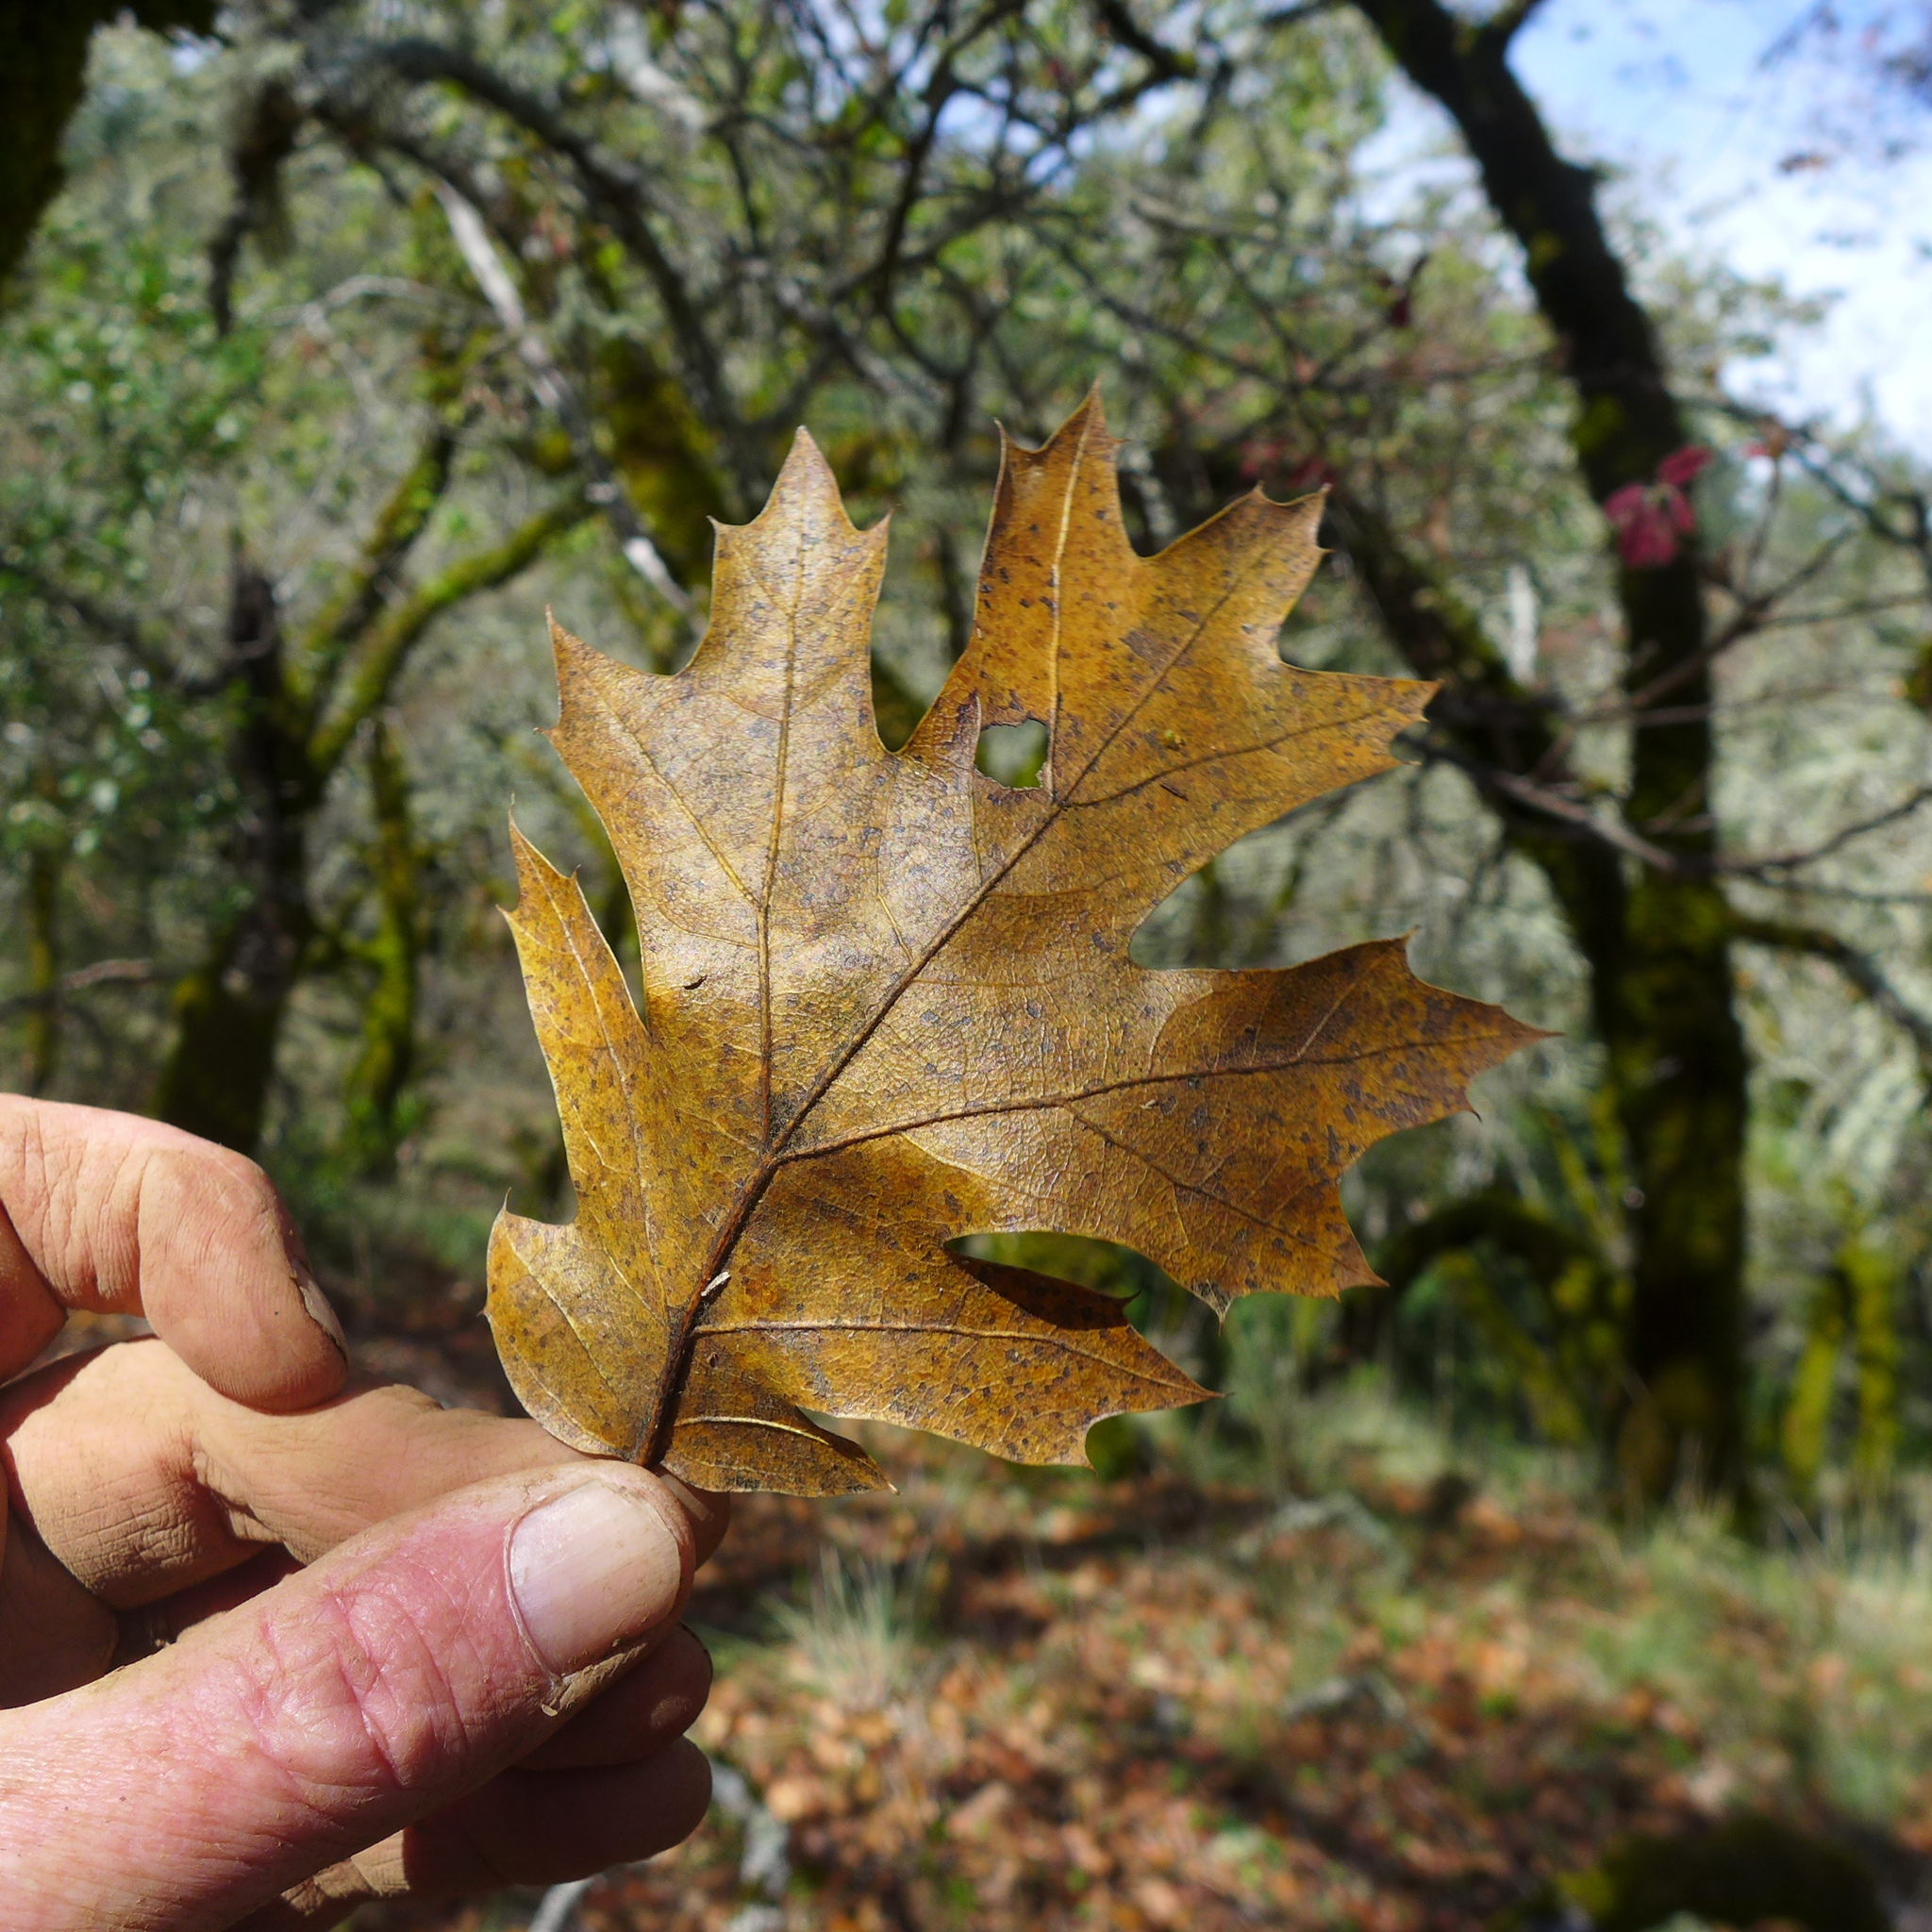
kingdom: Plantae
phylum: Tracheophyta
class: Magnoliopsida
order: Fagales
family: Fagaceae
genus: Quercus
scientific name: Quercus kelloggii
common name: California black oak
